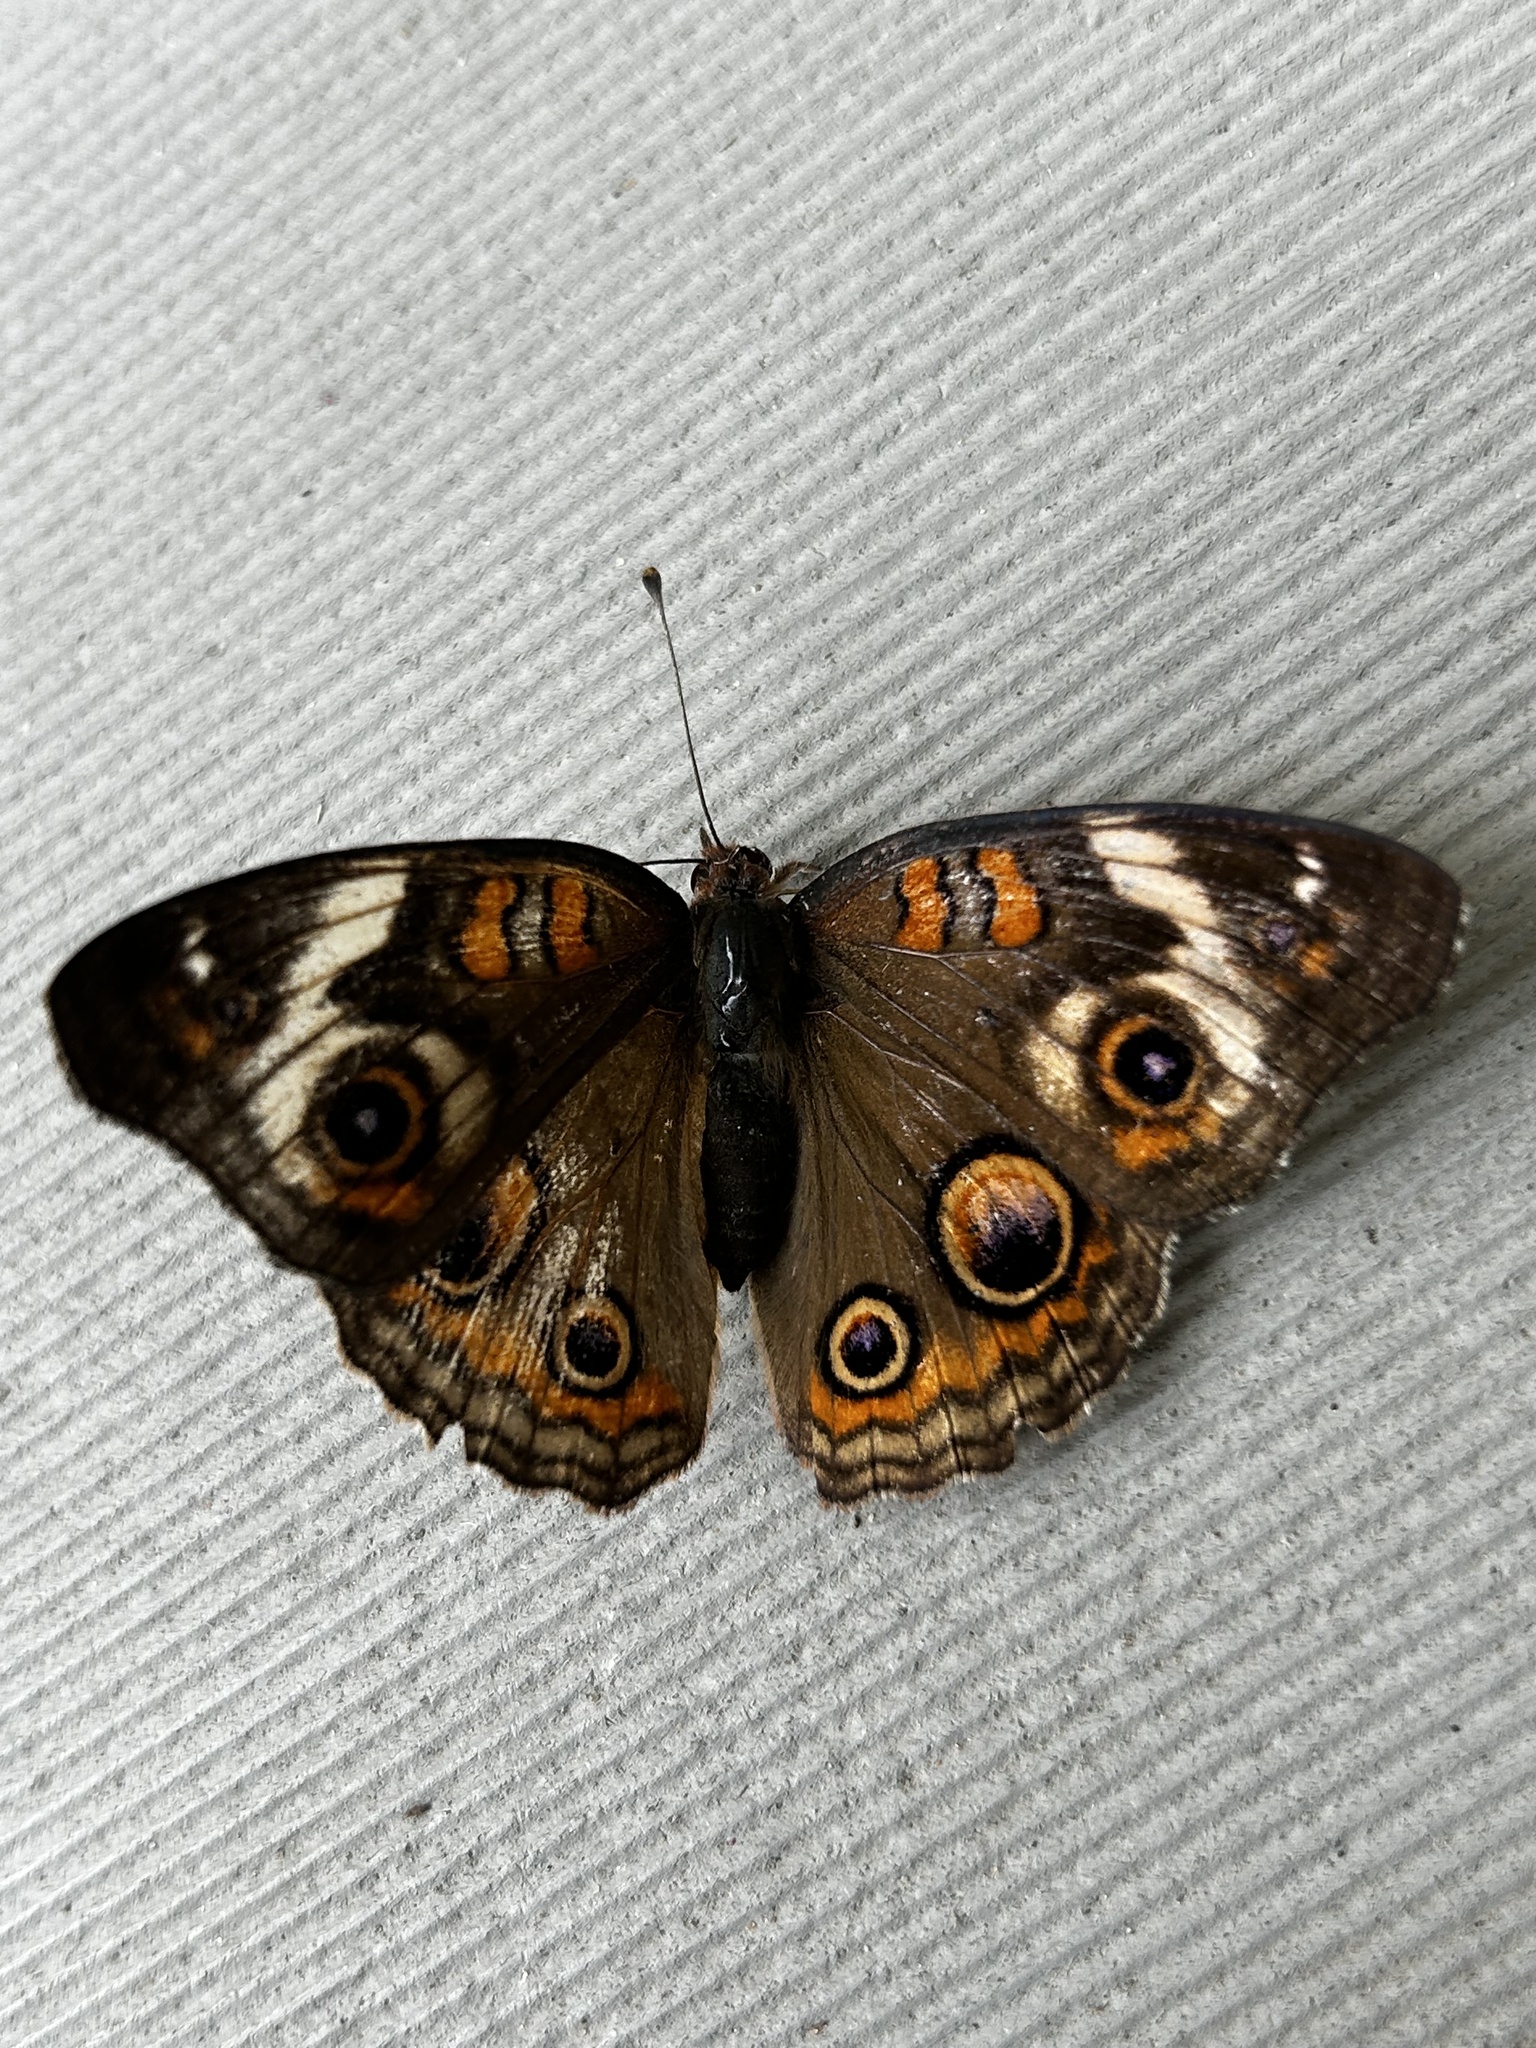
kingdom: Animalia
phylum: Arthropoda
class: Insecta
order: Lepidoptera
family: Nymphalidae
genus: Junonia
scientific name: Junonia coenia
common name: Common buckeye
